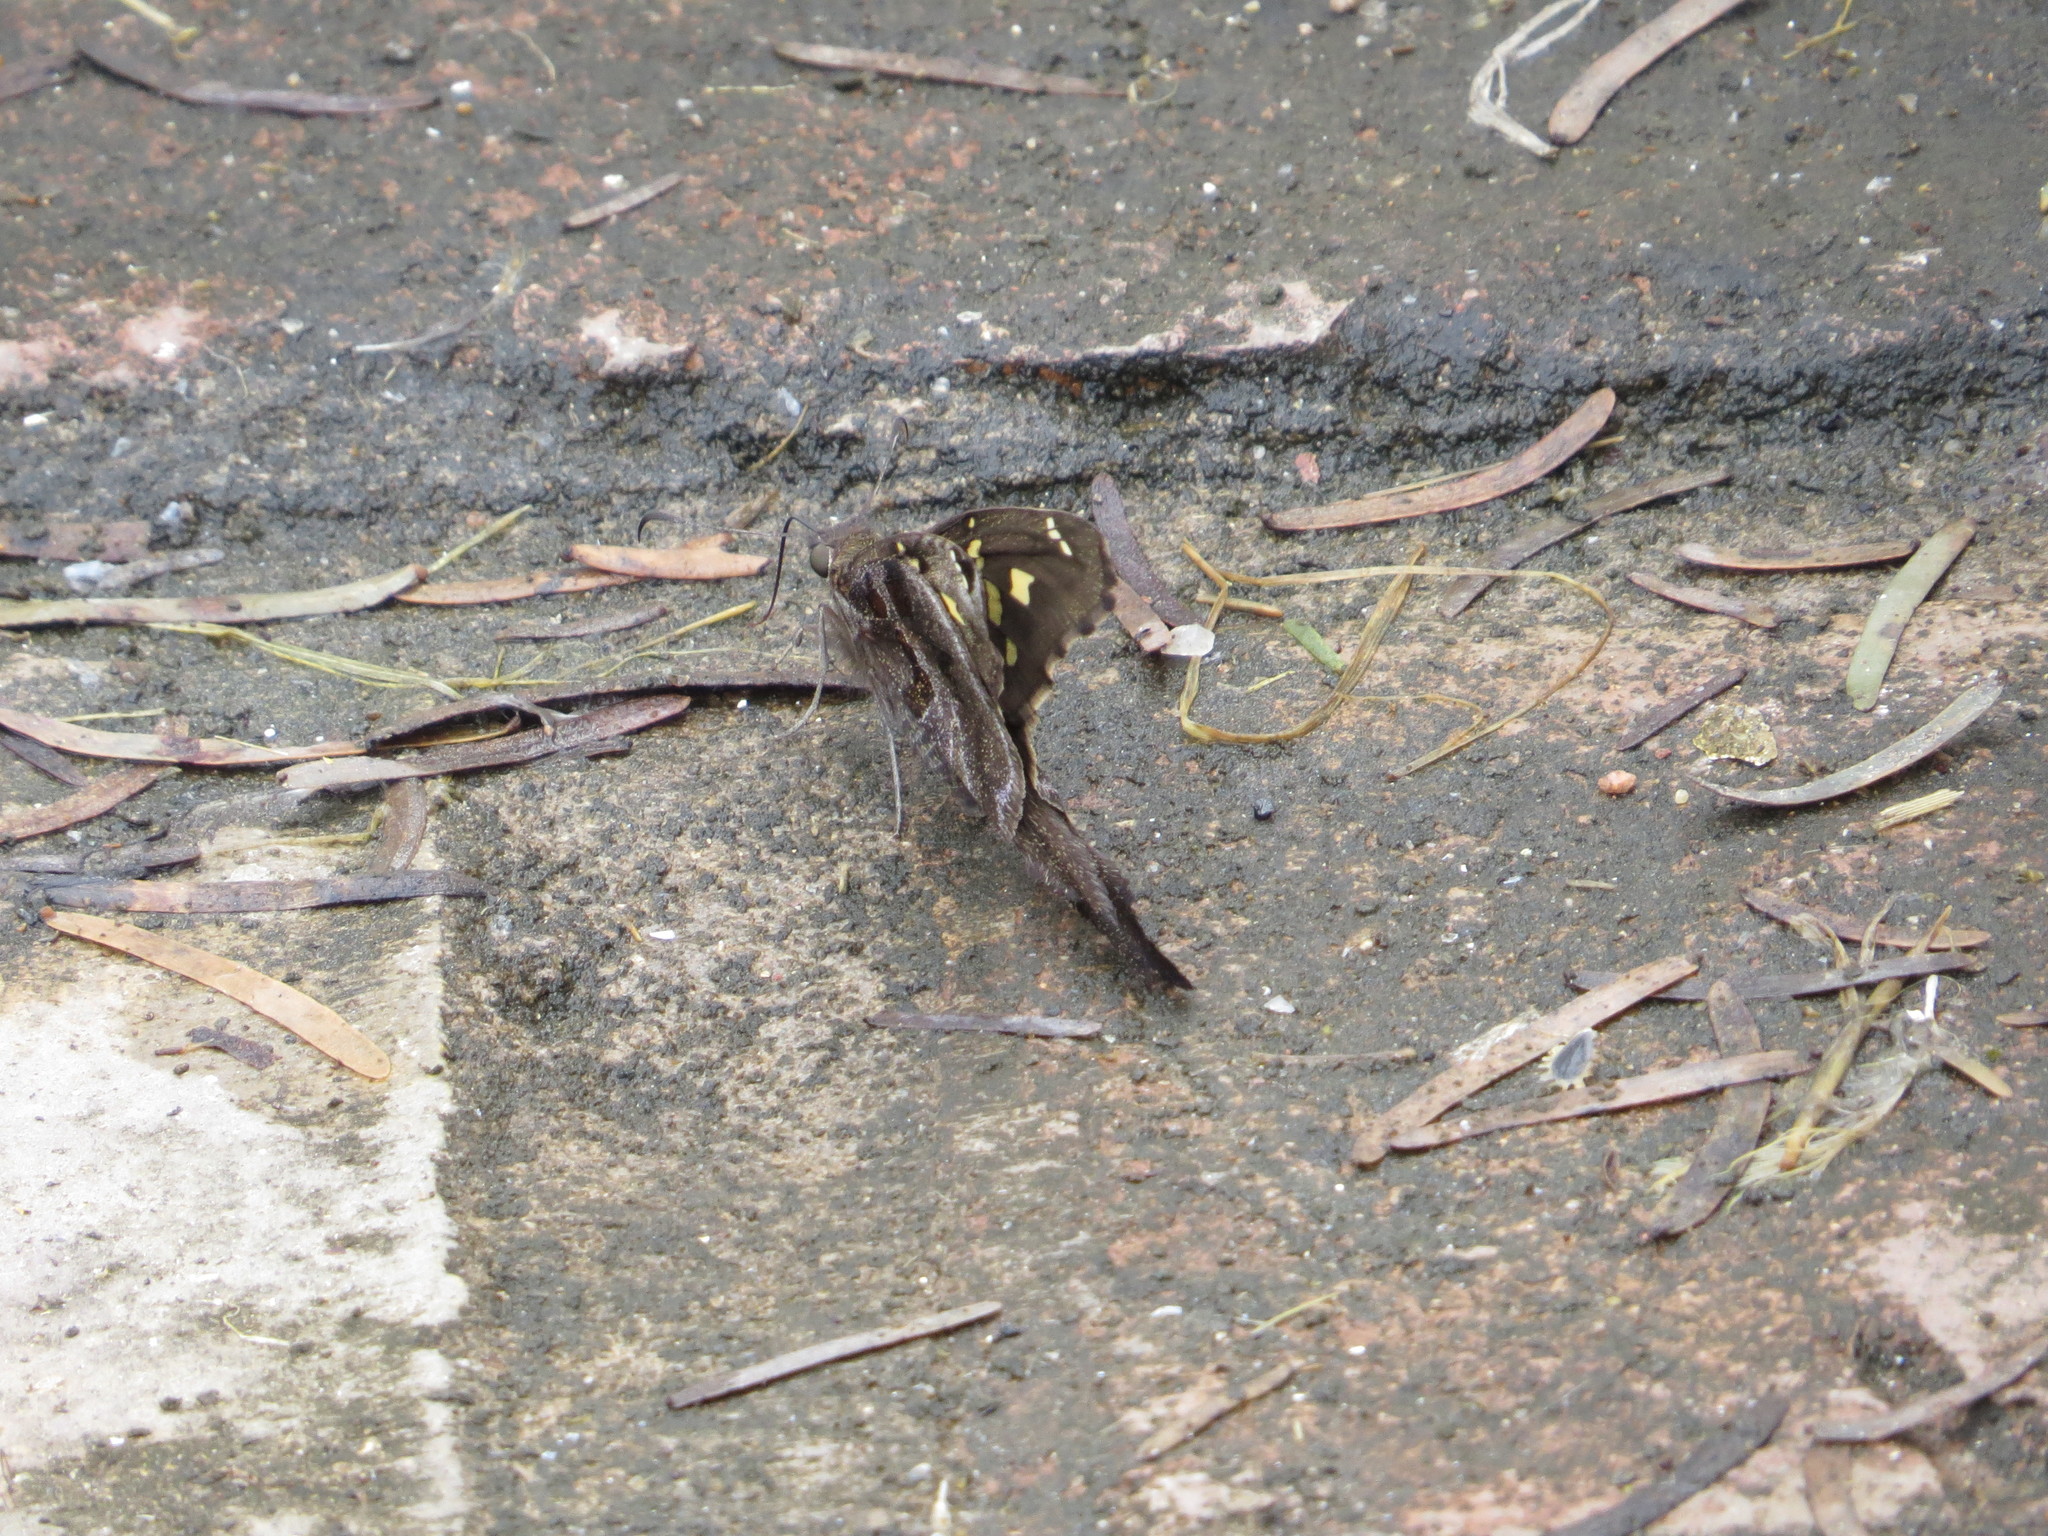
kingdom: Animalia
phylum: Arthropoda
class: Insecta
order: Lepidoptera
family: Hesperiidae
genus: Chioides
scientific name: Chioides catillus
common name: Silverbanded skipper
